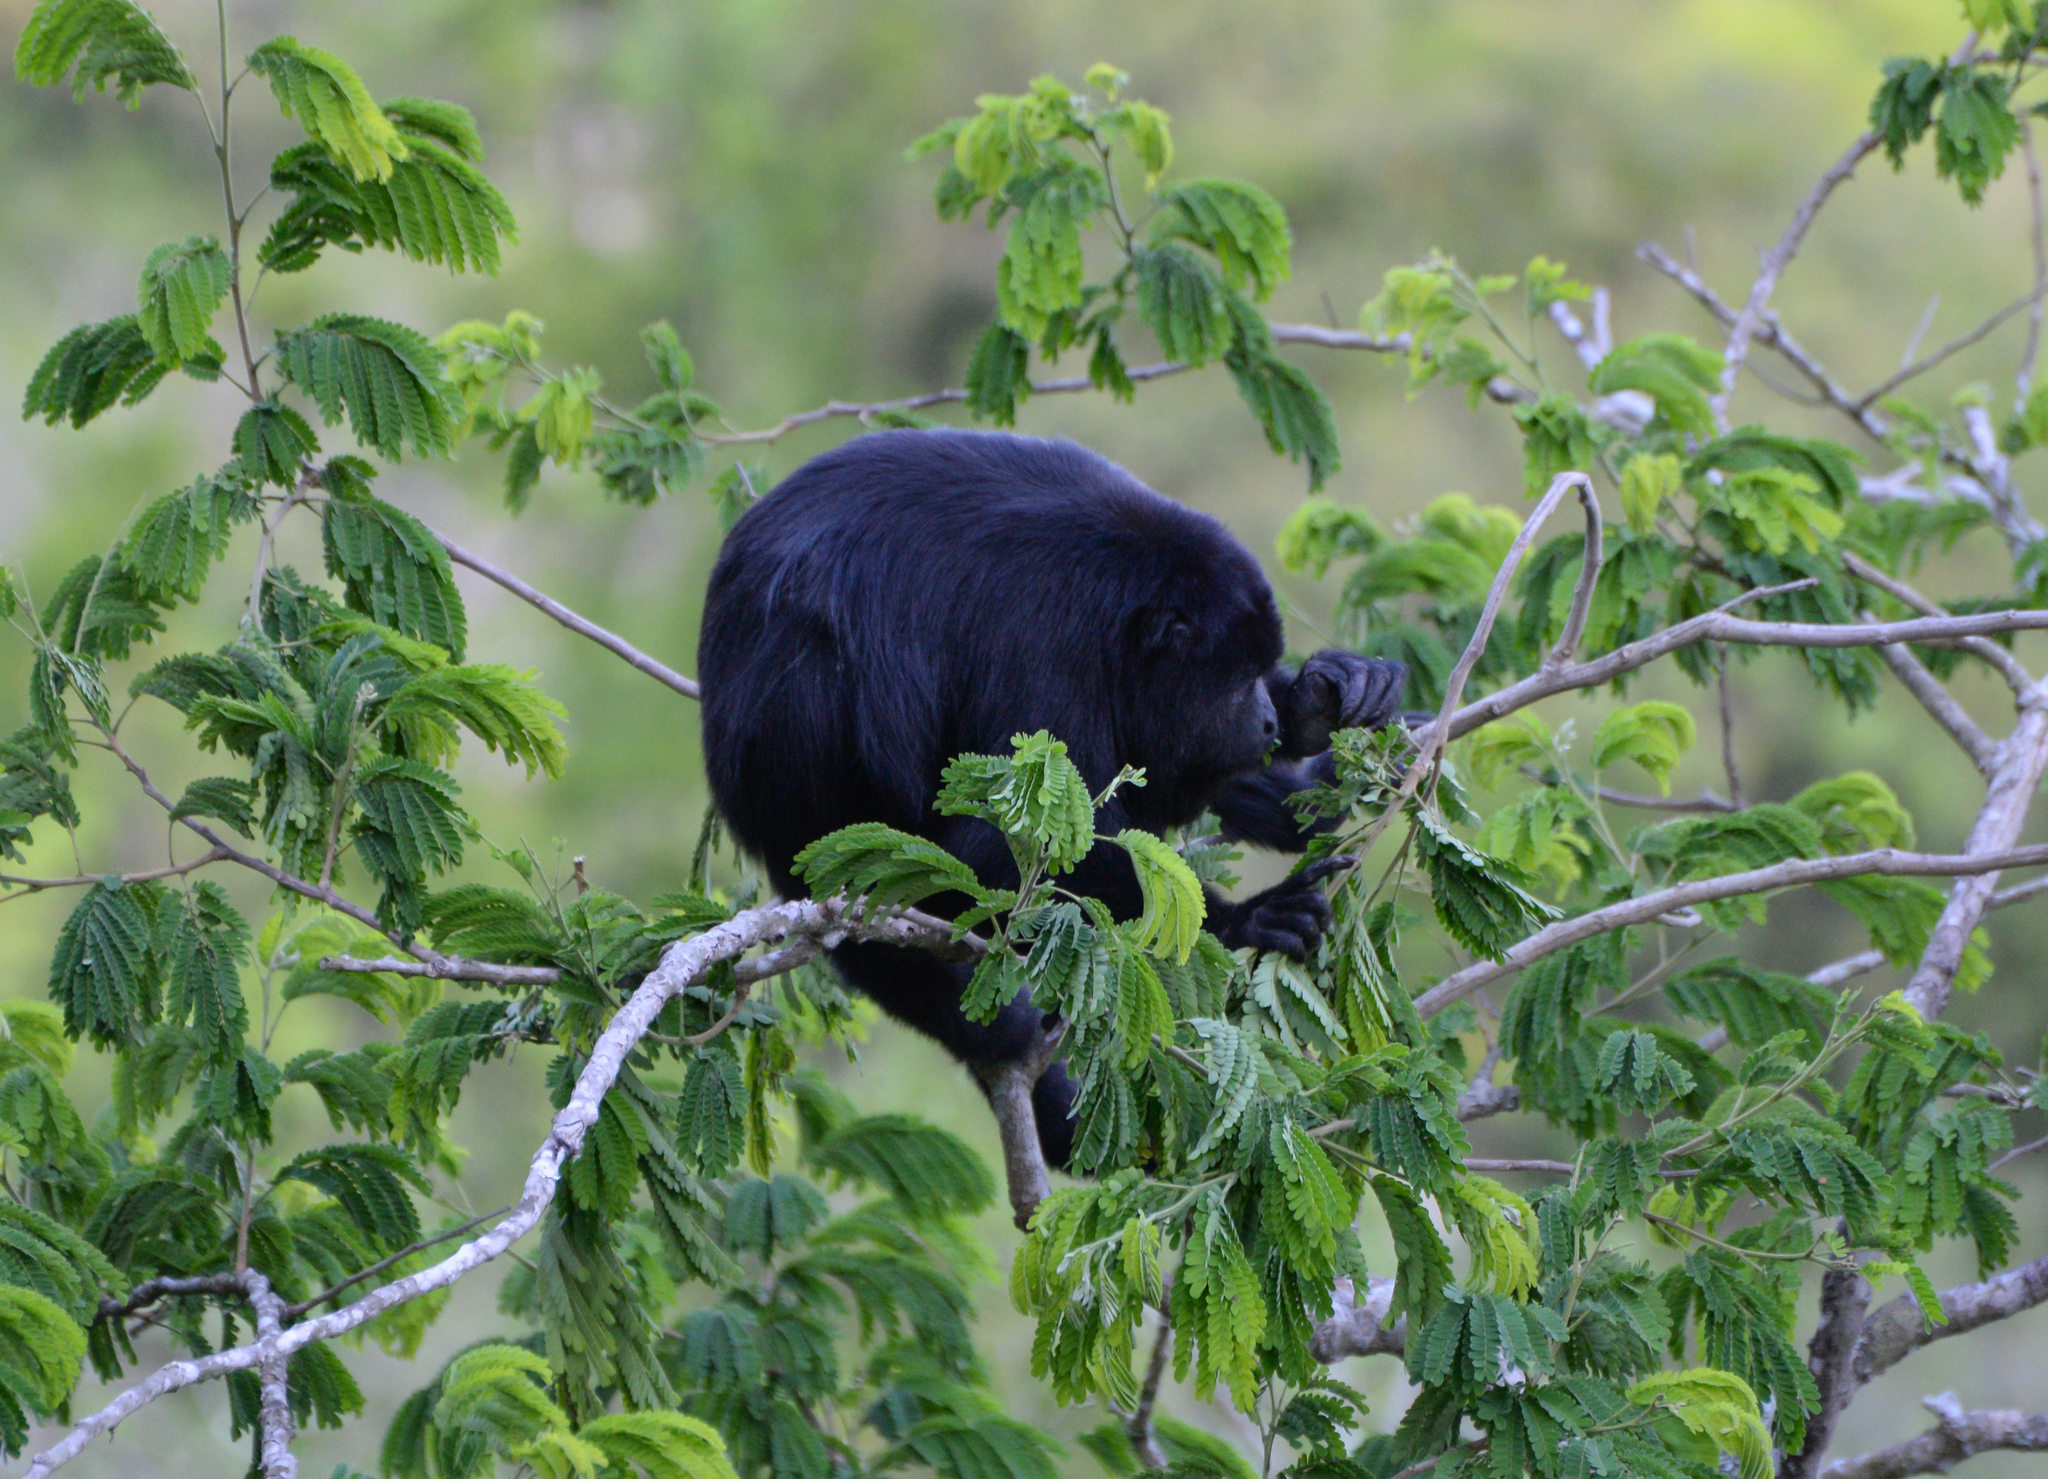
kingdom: Animalia
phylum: Chordata
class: Mammalia
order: Primates
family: Atelidae
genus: Alouatta
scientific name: Alouatta pigra
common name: Guatemalan black howler
